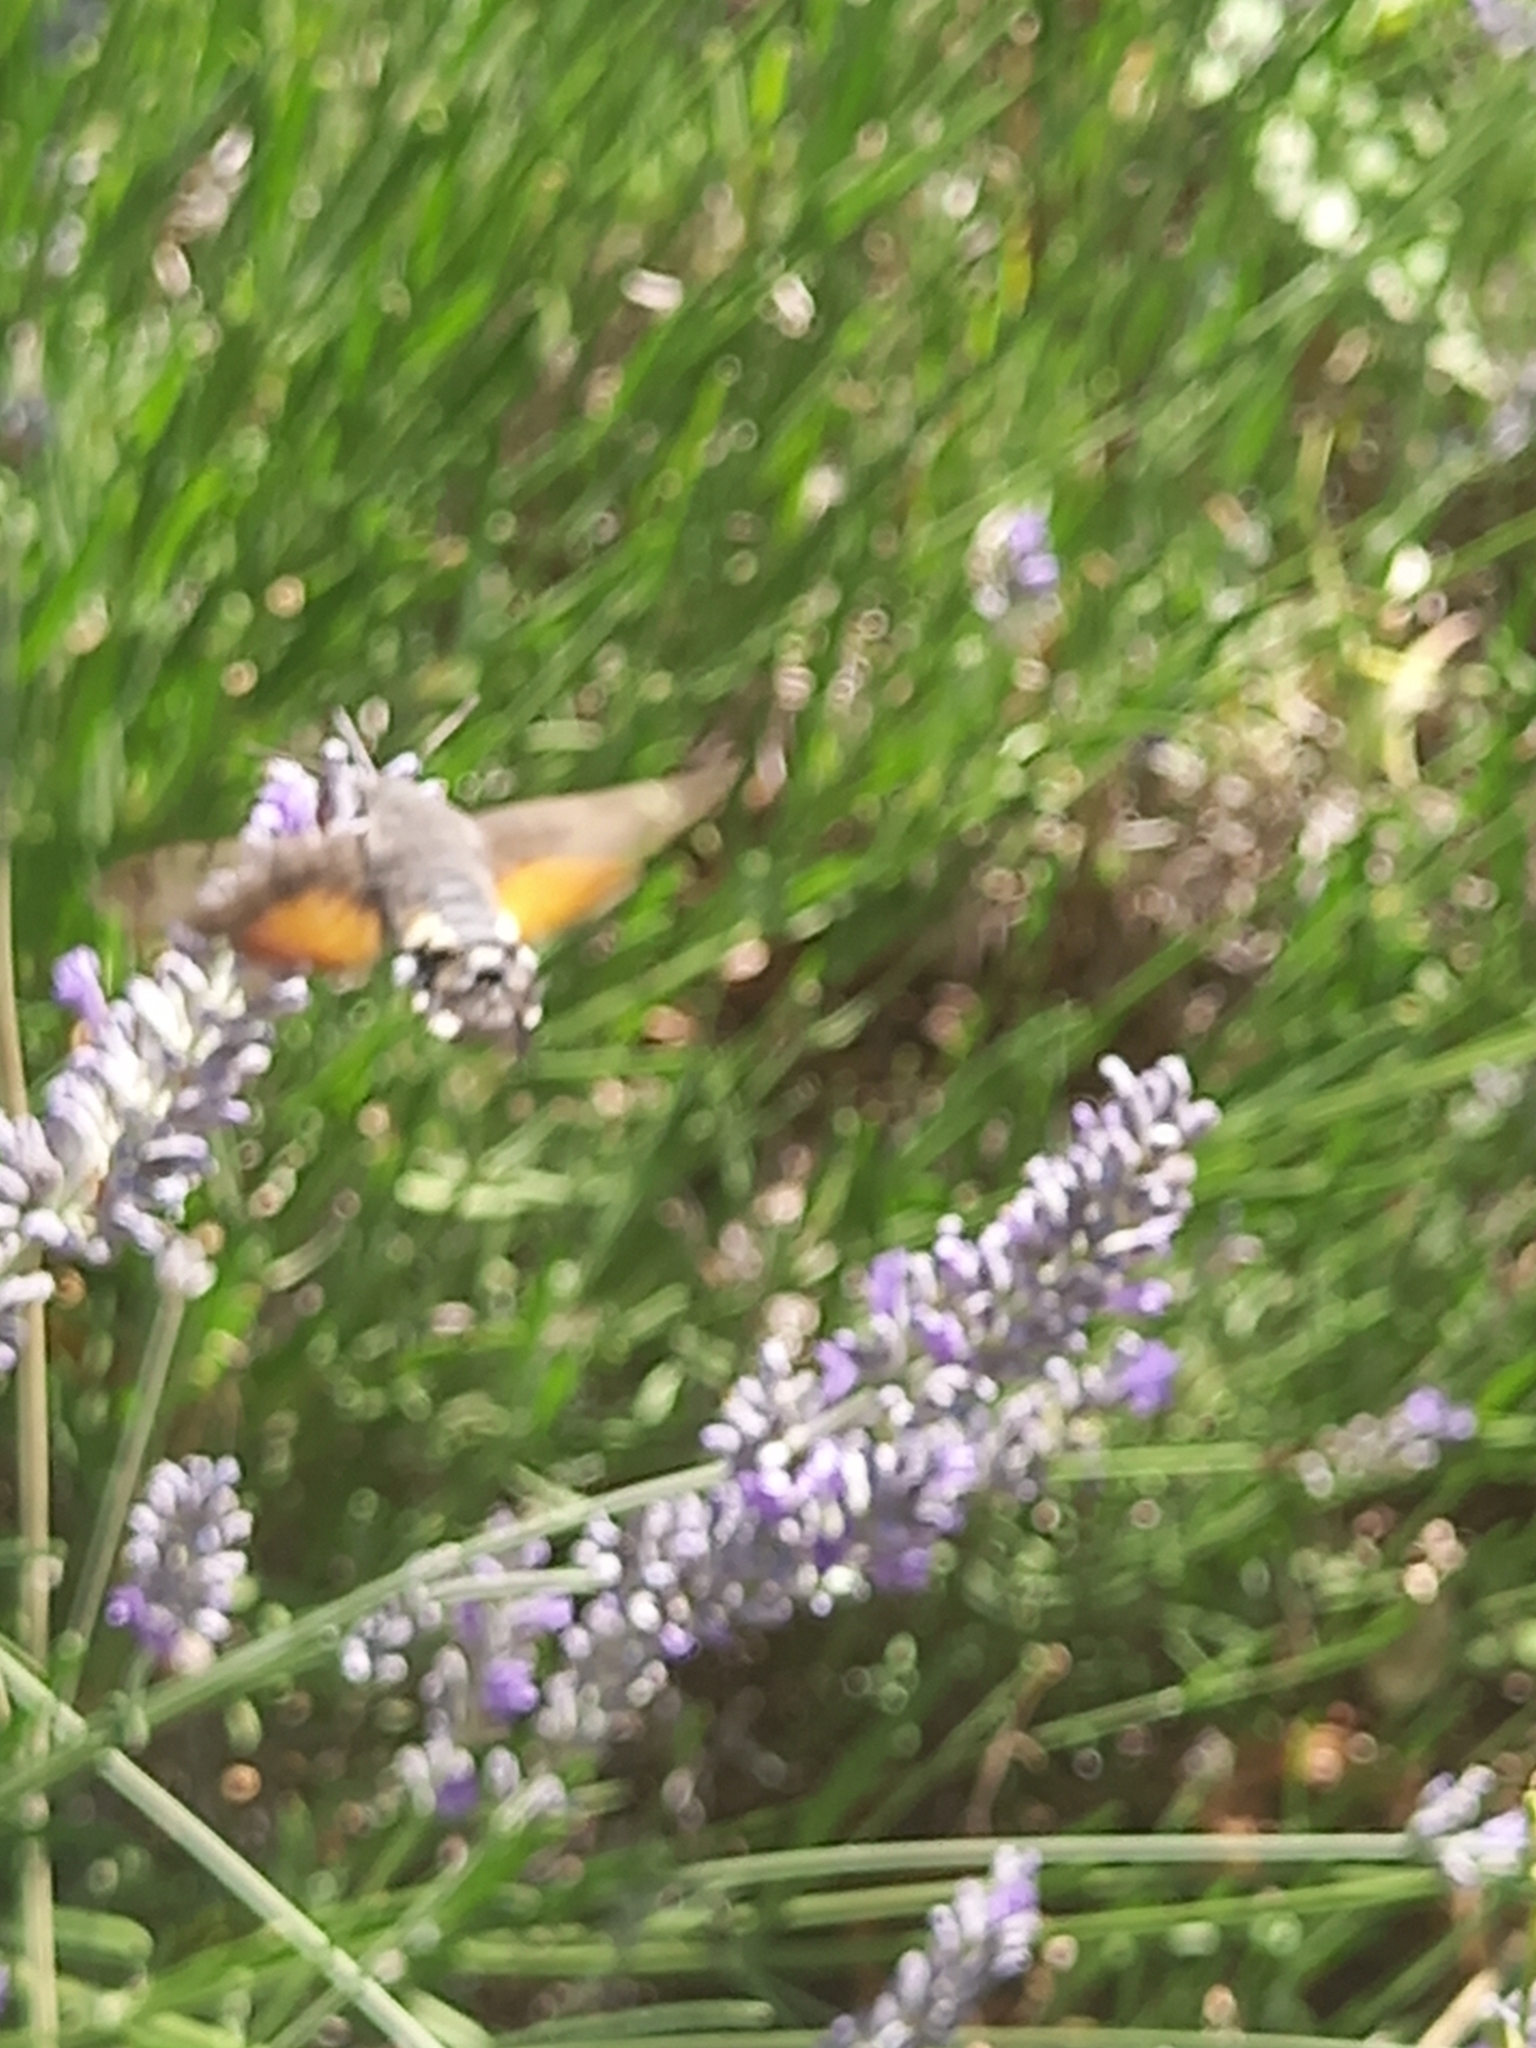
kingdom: Animalia
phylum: Arthropoda
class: Insecta
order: Lepidoptera
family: Sphingidae
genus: Macroglossum
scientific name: Macroglossum stellatarum
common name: Humming-bird hawk-moth
